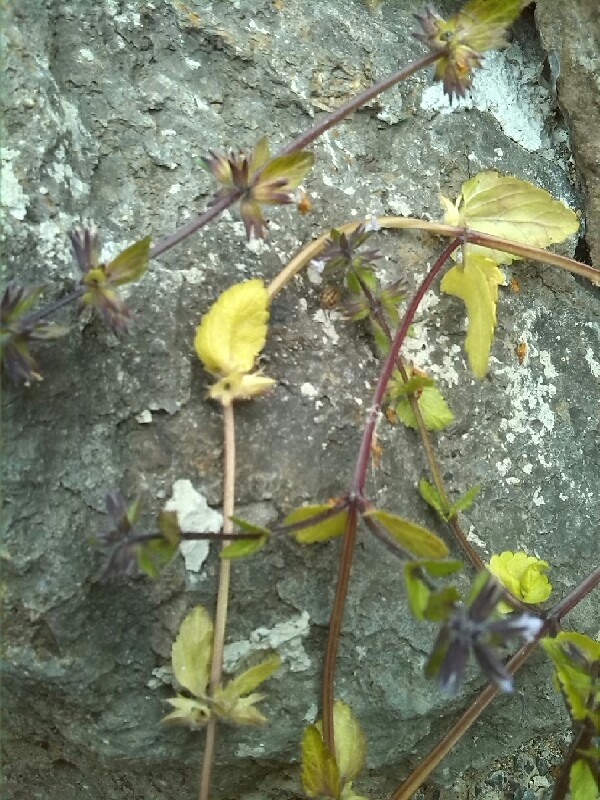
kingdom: Plantae
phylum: Tracheophyta
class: Magnoliopsida
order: Lamiales
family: Lamiaceae
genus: Stachys
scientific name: Stachys arvensis
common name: Field woundwort
